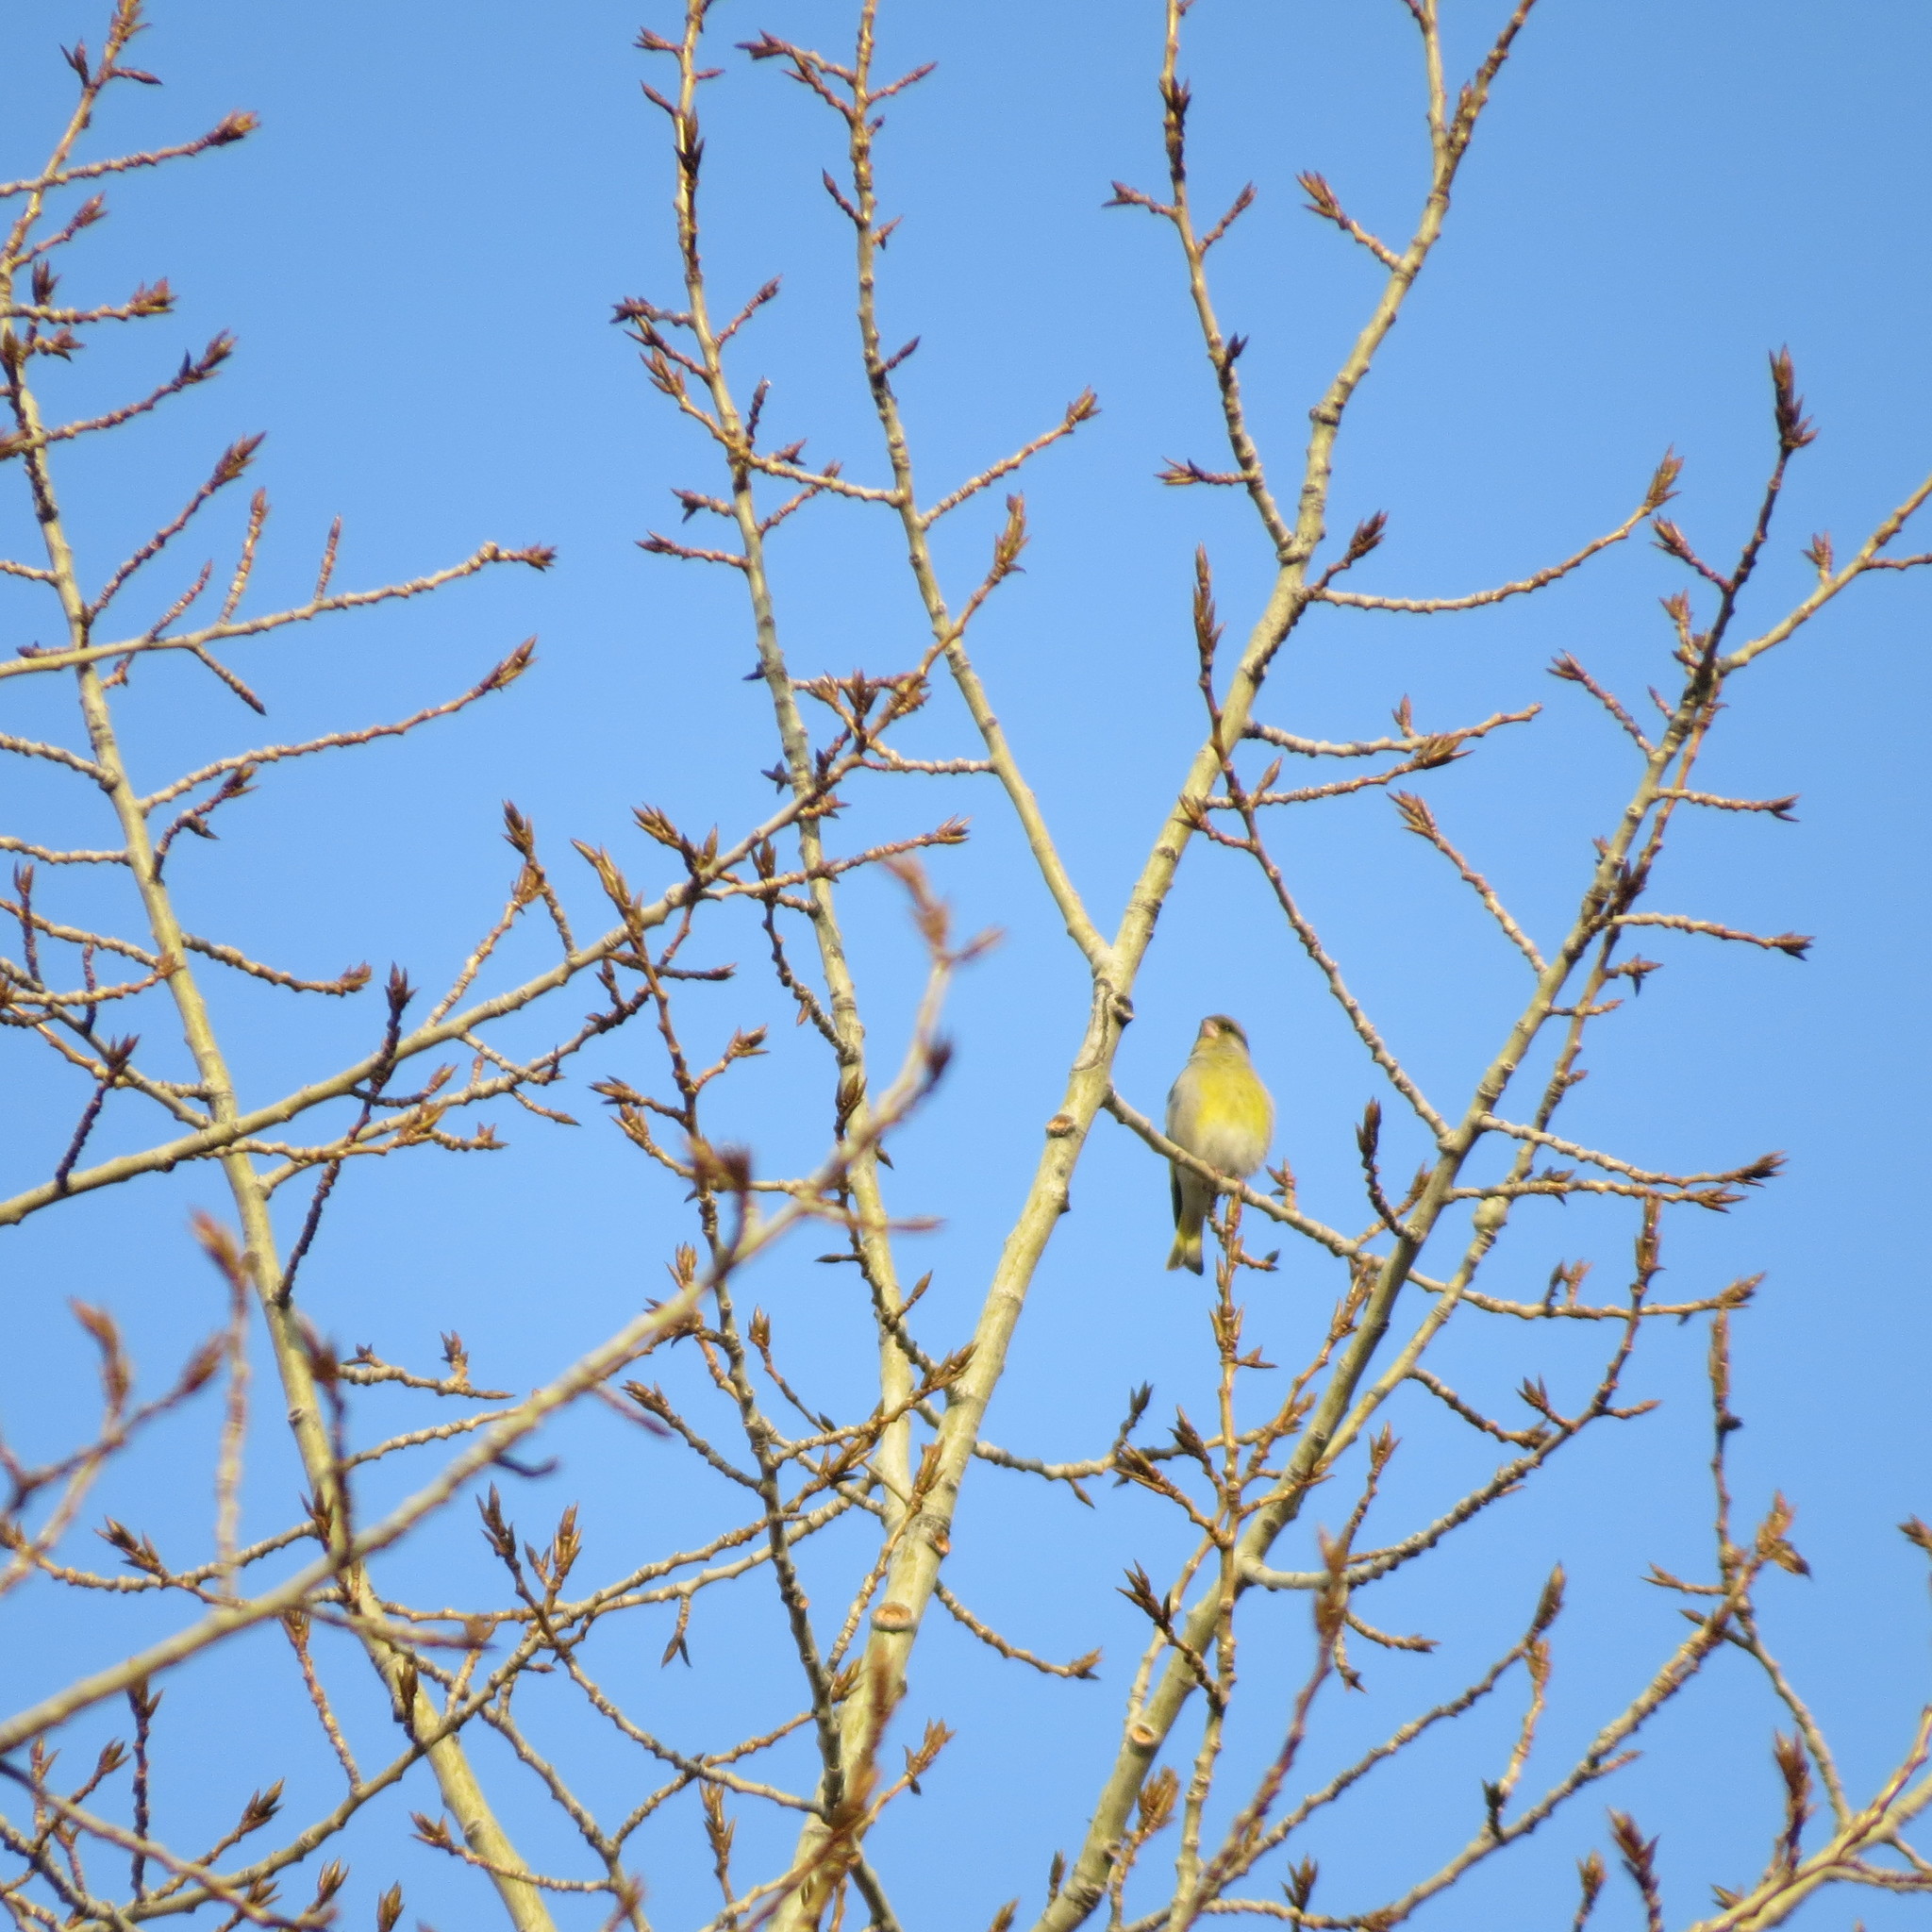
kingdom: Plantae
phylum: Tracheophyta
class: Liliopsida
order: Poales
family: Poaceae
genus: Chloris
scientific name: Chloris chloris
